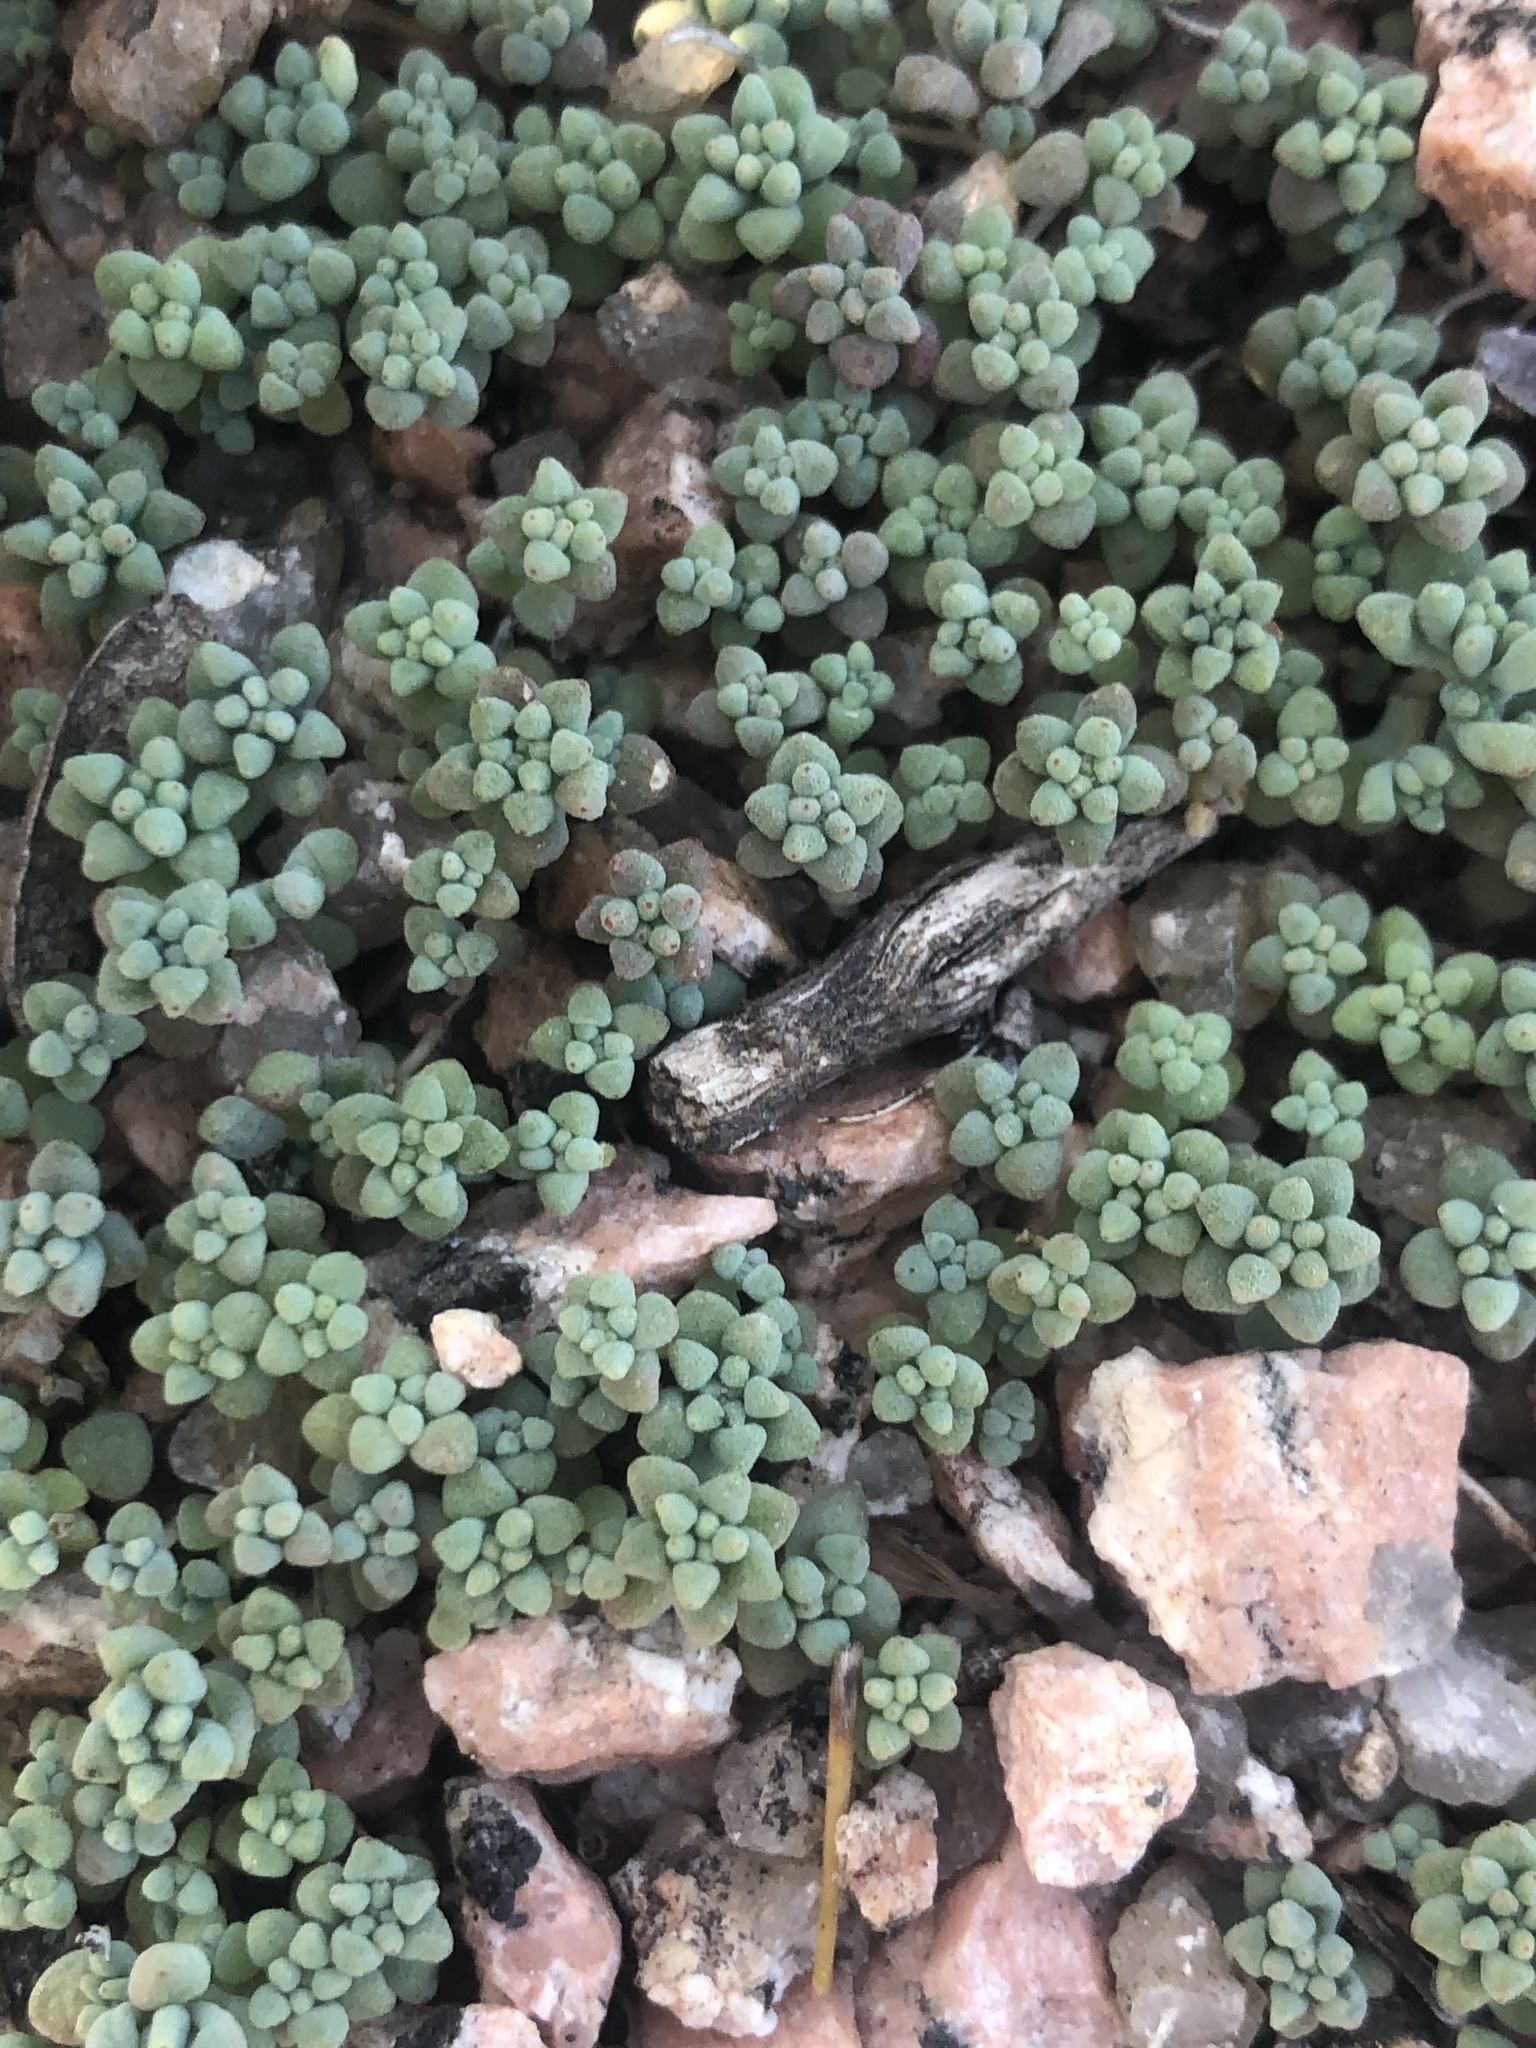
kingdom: Plantae
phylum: Tracheophyta
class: Magnoliopsida
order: Saxifragales
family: Crassulaceae
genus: Sedum
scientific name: Sedum nuttallii
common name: Yellow stonecrop
